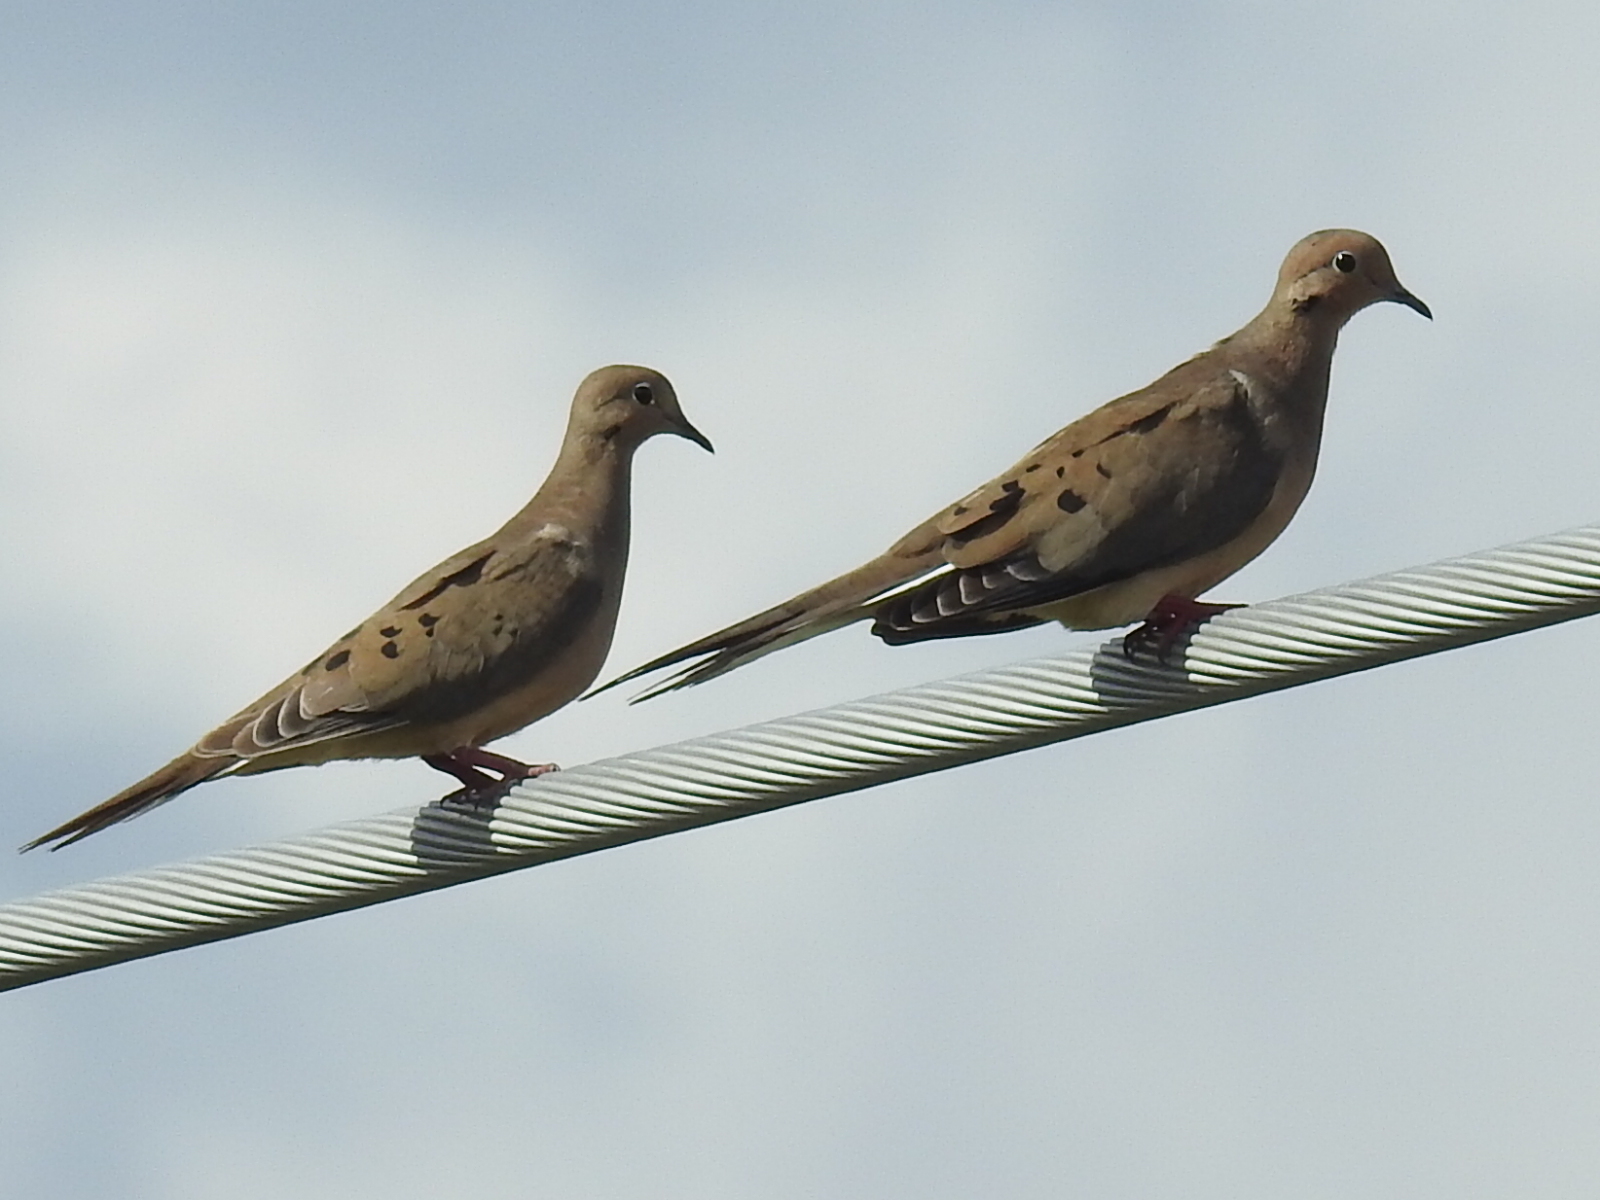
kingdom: Animalia
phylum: Chordata
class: Aves
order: Columbiformes
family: Columbidae
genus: Zenaida
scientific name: Zenaida macroura
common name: Mourning dove
